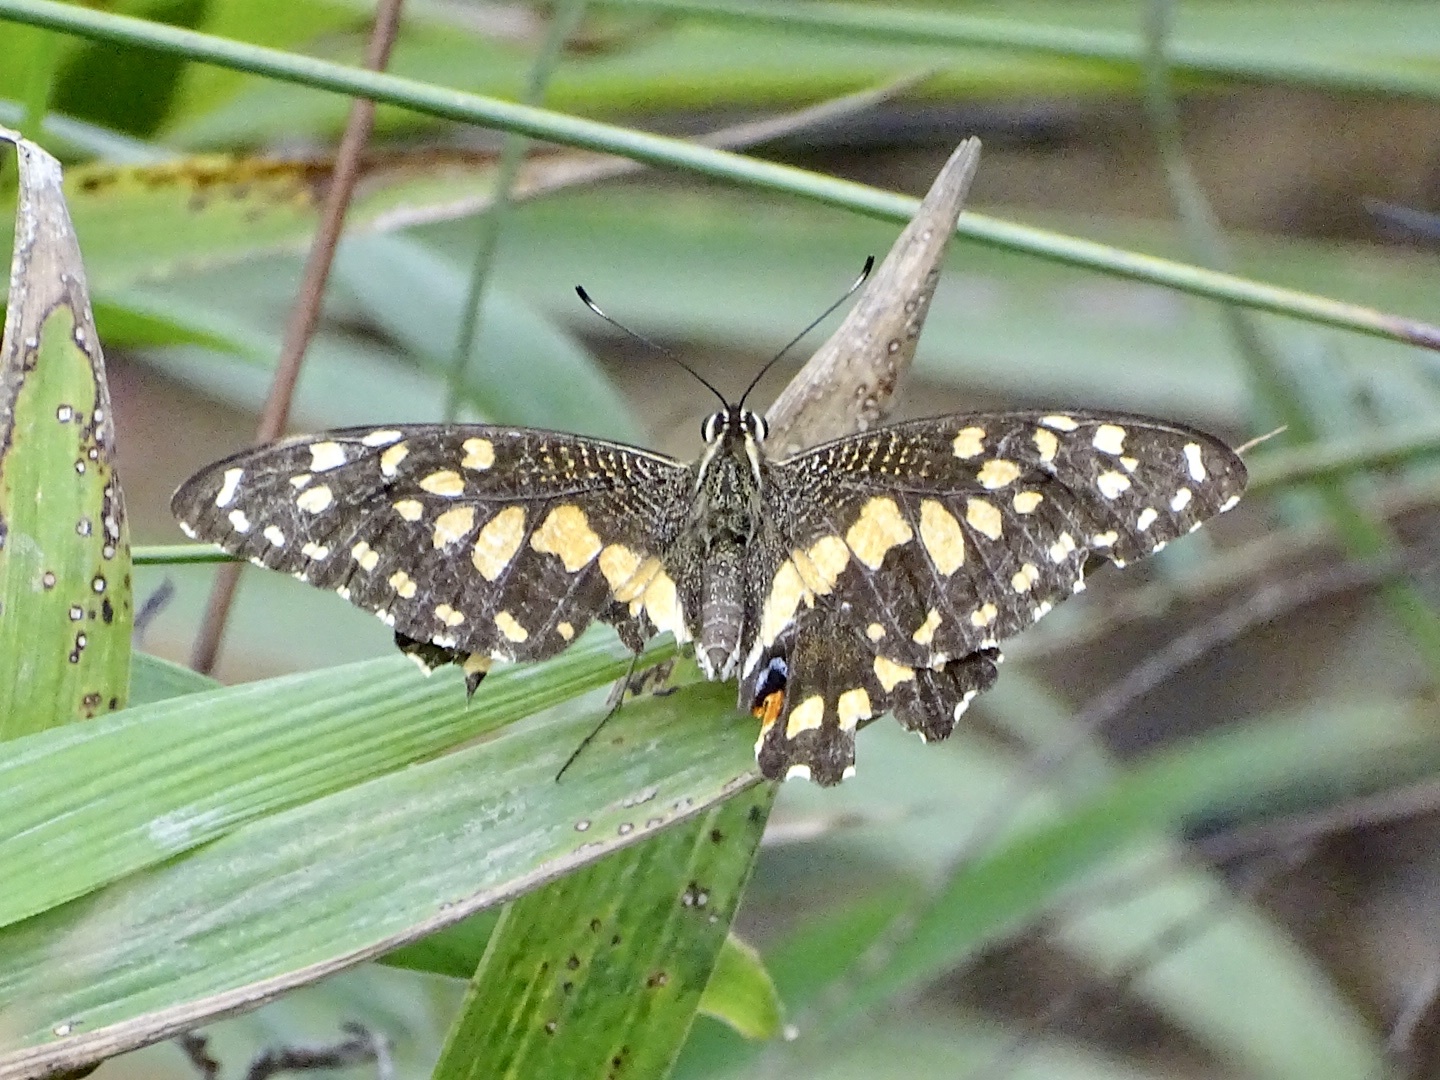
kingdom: Animalia
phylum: Arthropoda
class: Insecta
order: Lepidoptera
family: Papilionidae
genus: Papilio
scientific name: Papilio demoleus
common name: Lime butterfly
